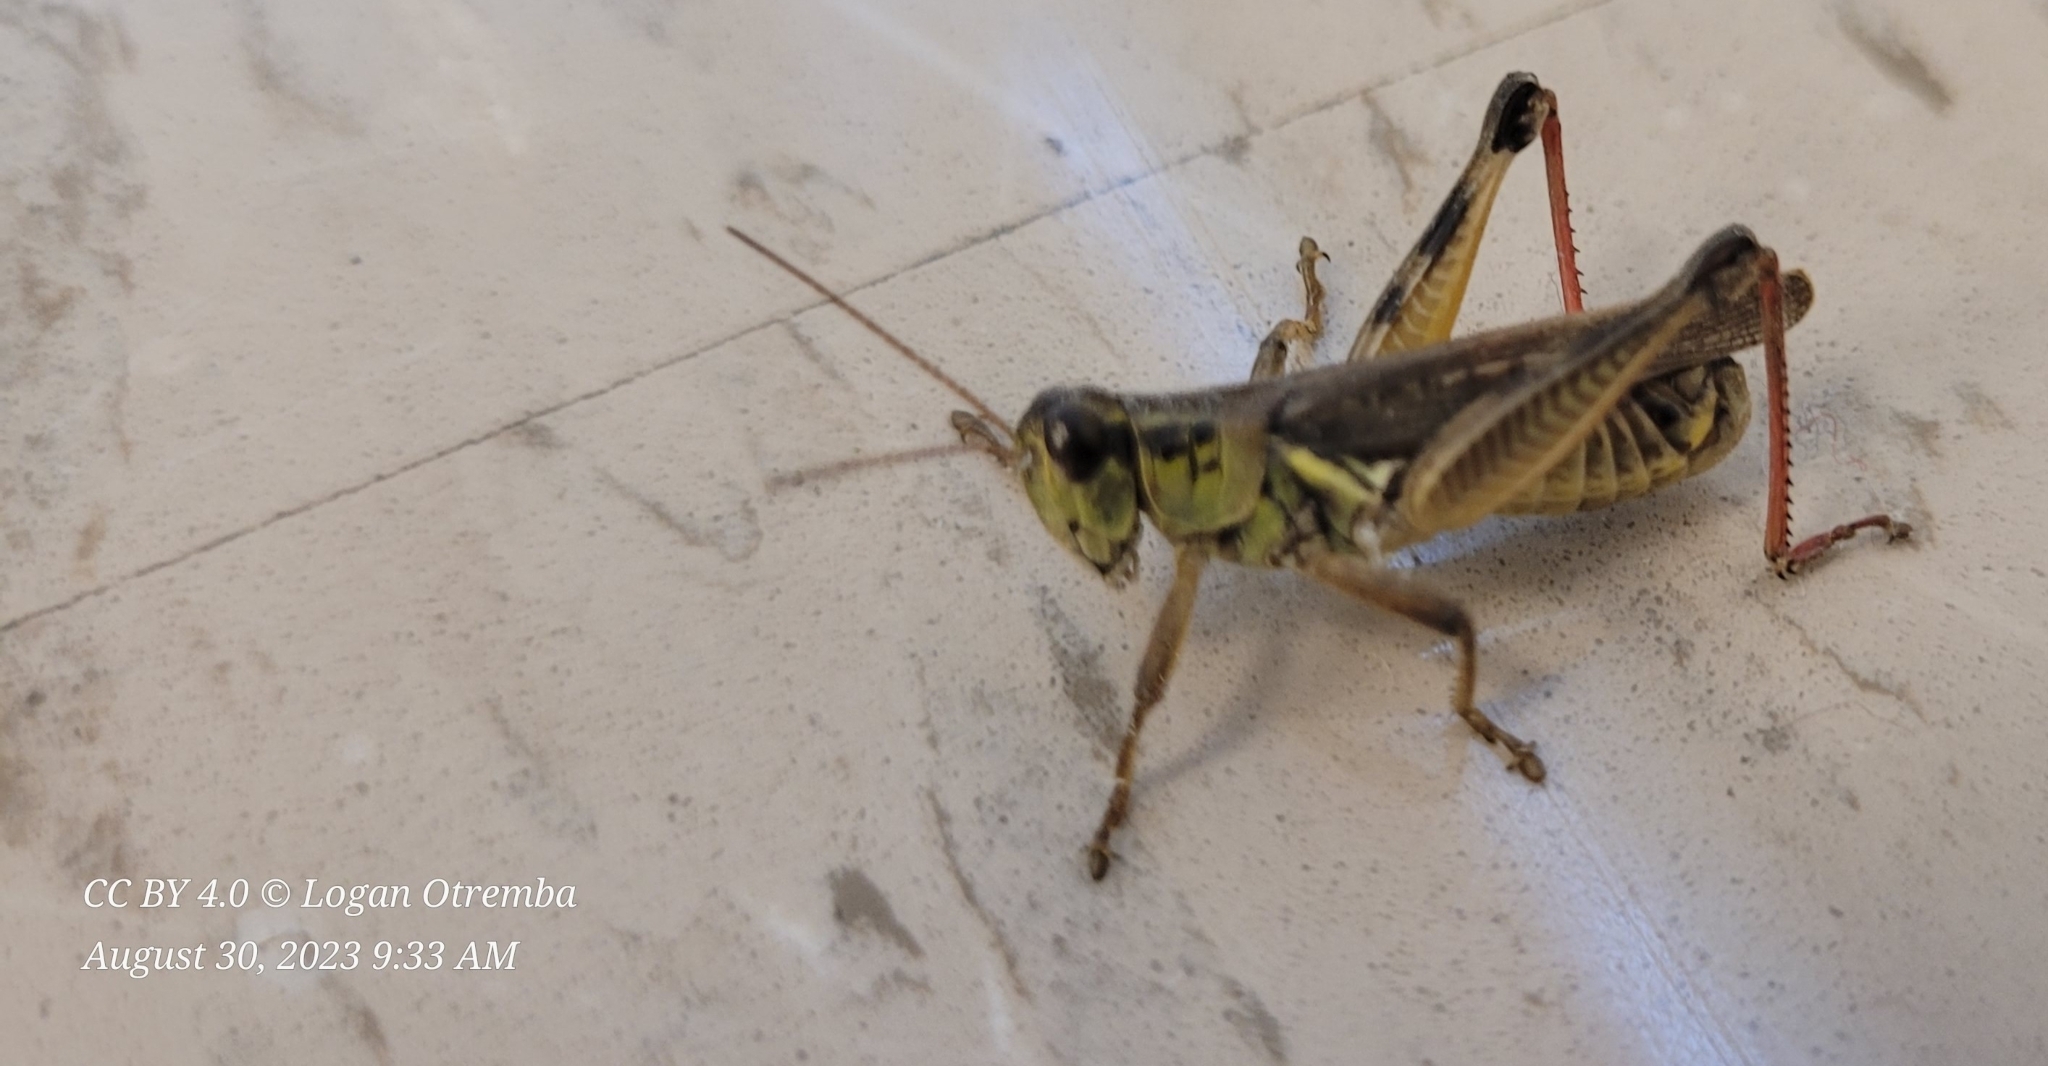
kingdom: Animalia
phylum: Arthropoda
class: Insecta
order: Orthoptera
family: Acrididae
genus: Melanoplus
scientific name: Melanoplus femurrubrum
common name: Red-legged grasshopper
